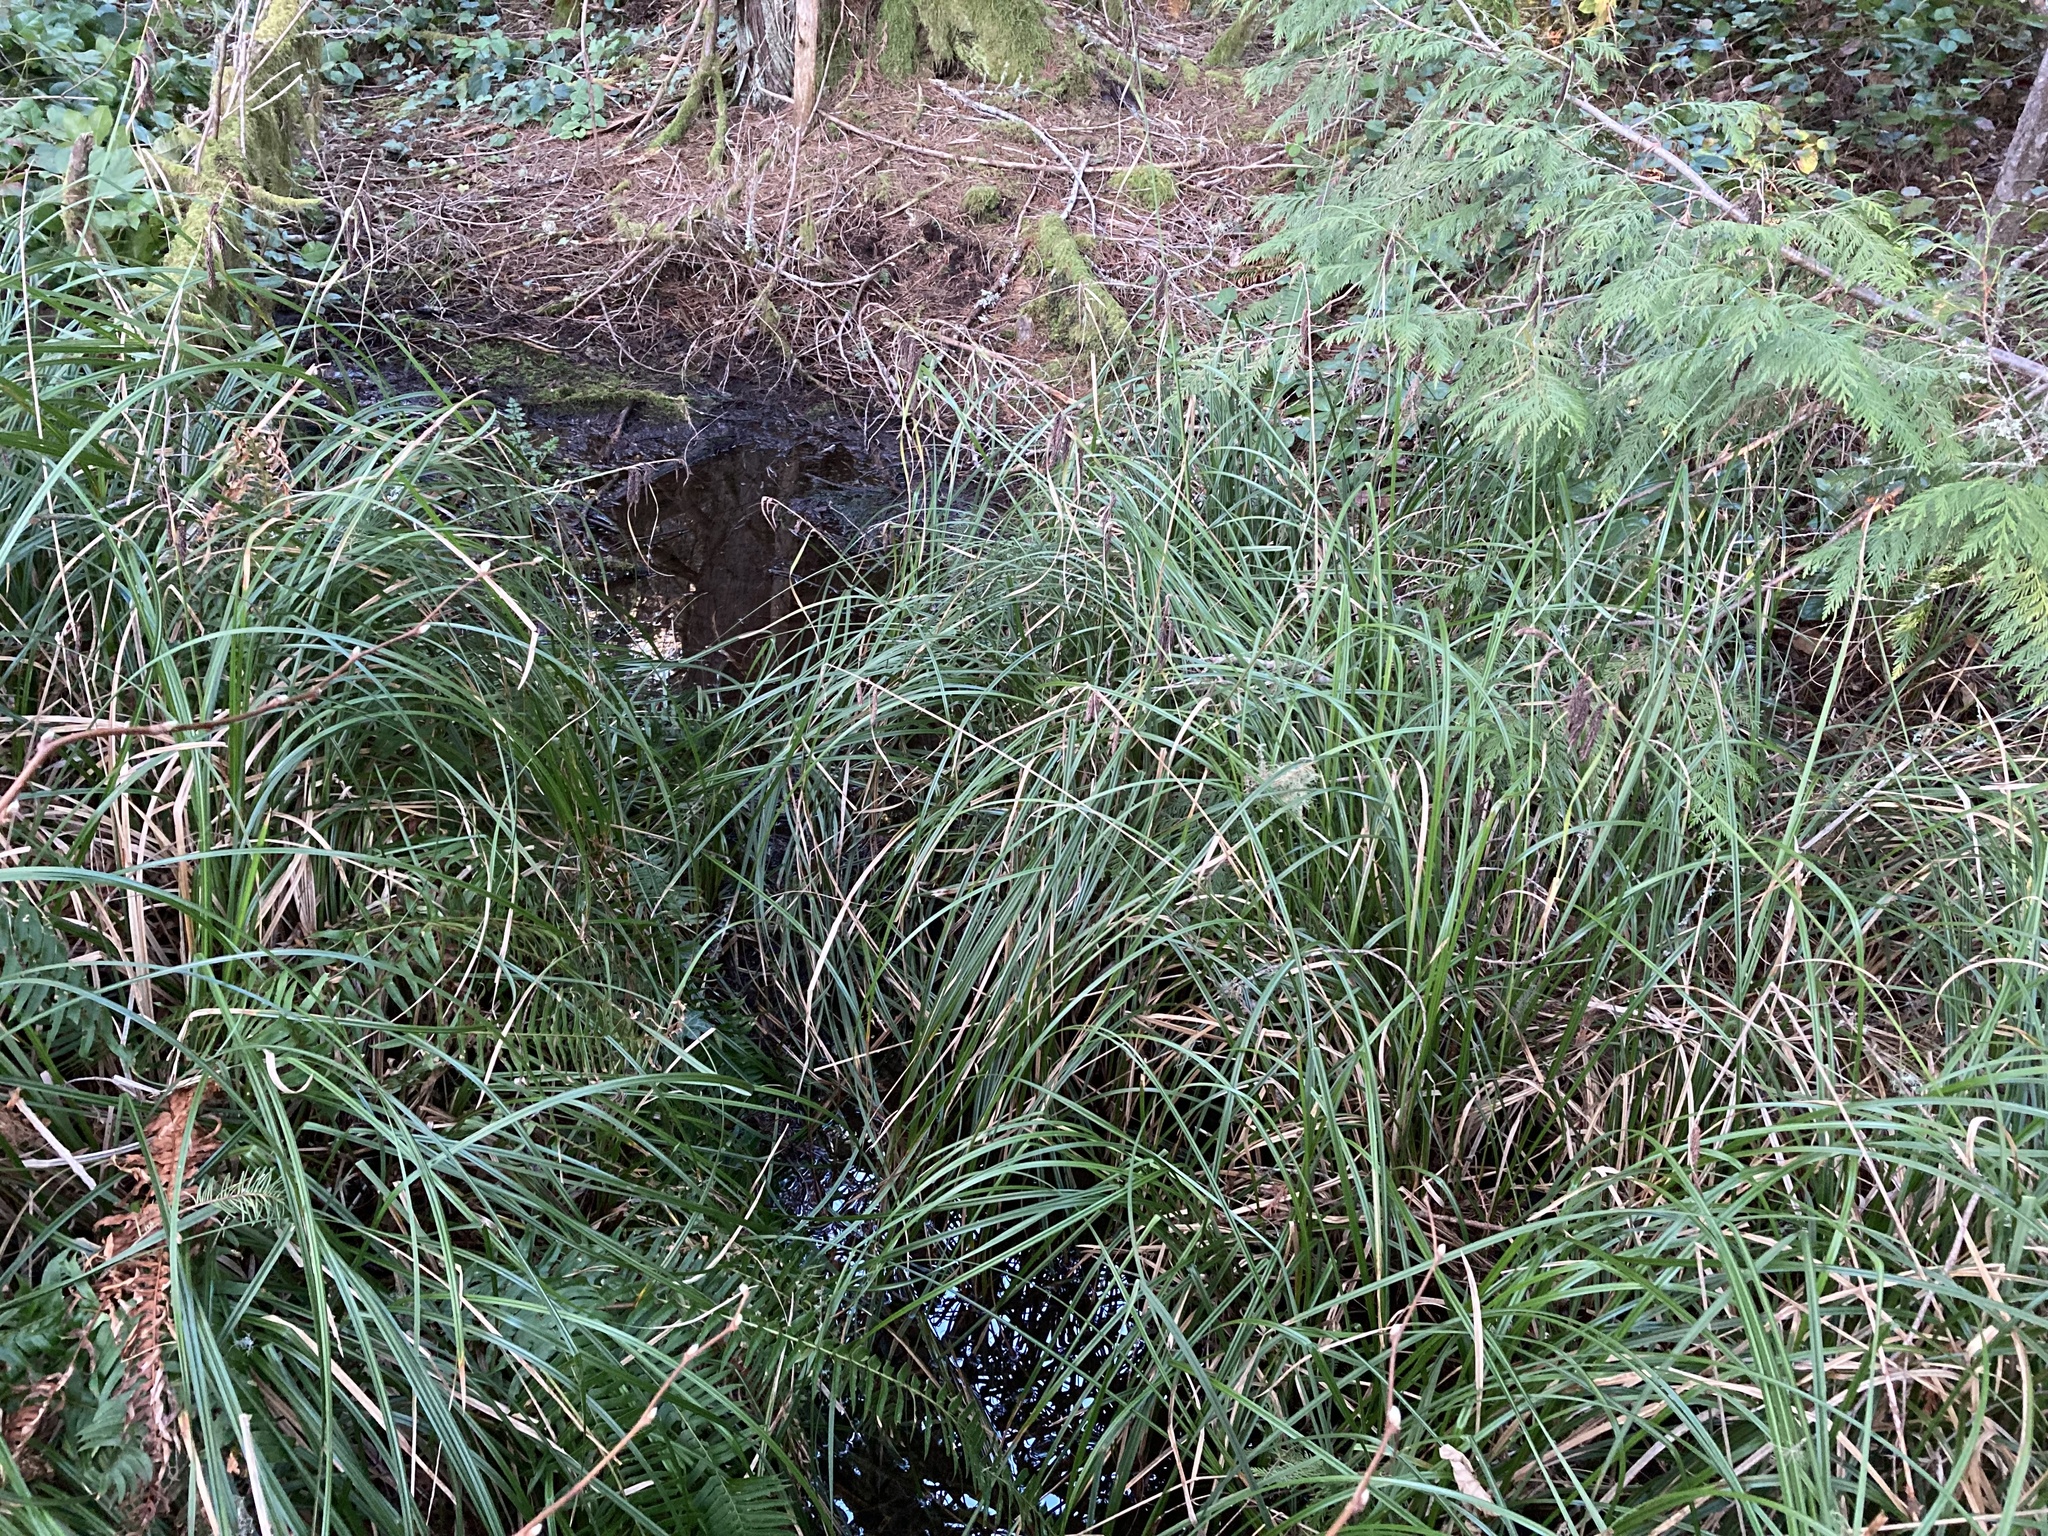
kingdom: Plantae
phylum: Tracheophyta
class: Liliopsida
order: Poales
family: Cyperaceae
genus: Carex
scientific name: Carex obnupta
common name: Slough sedge
